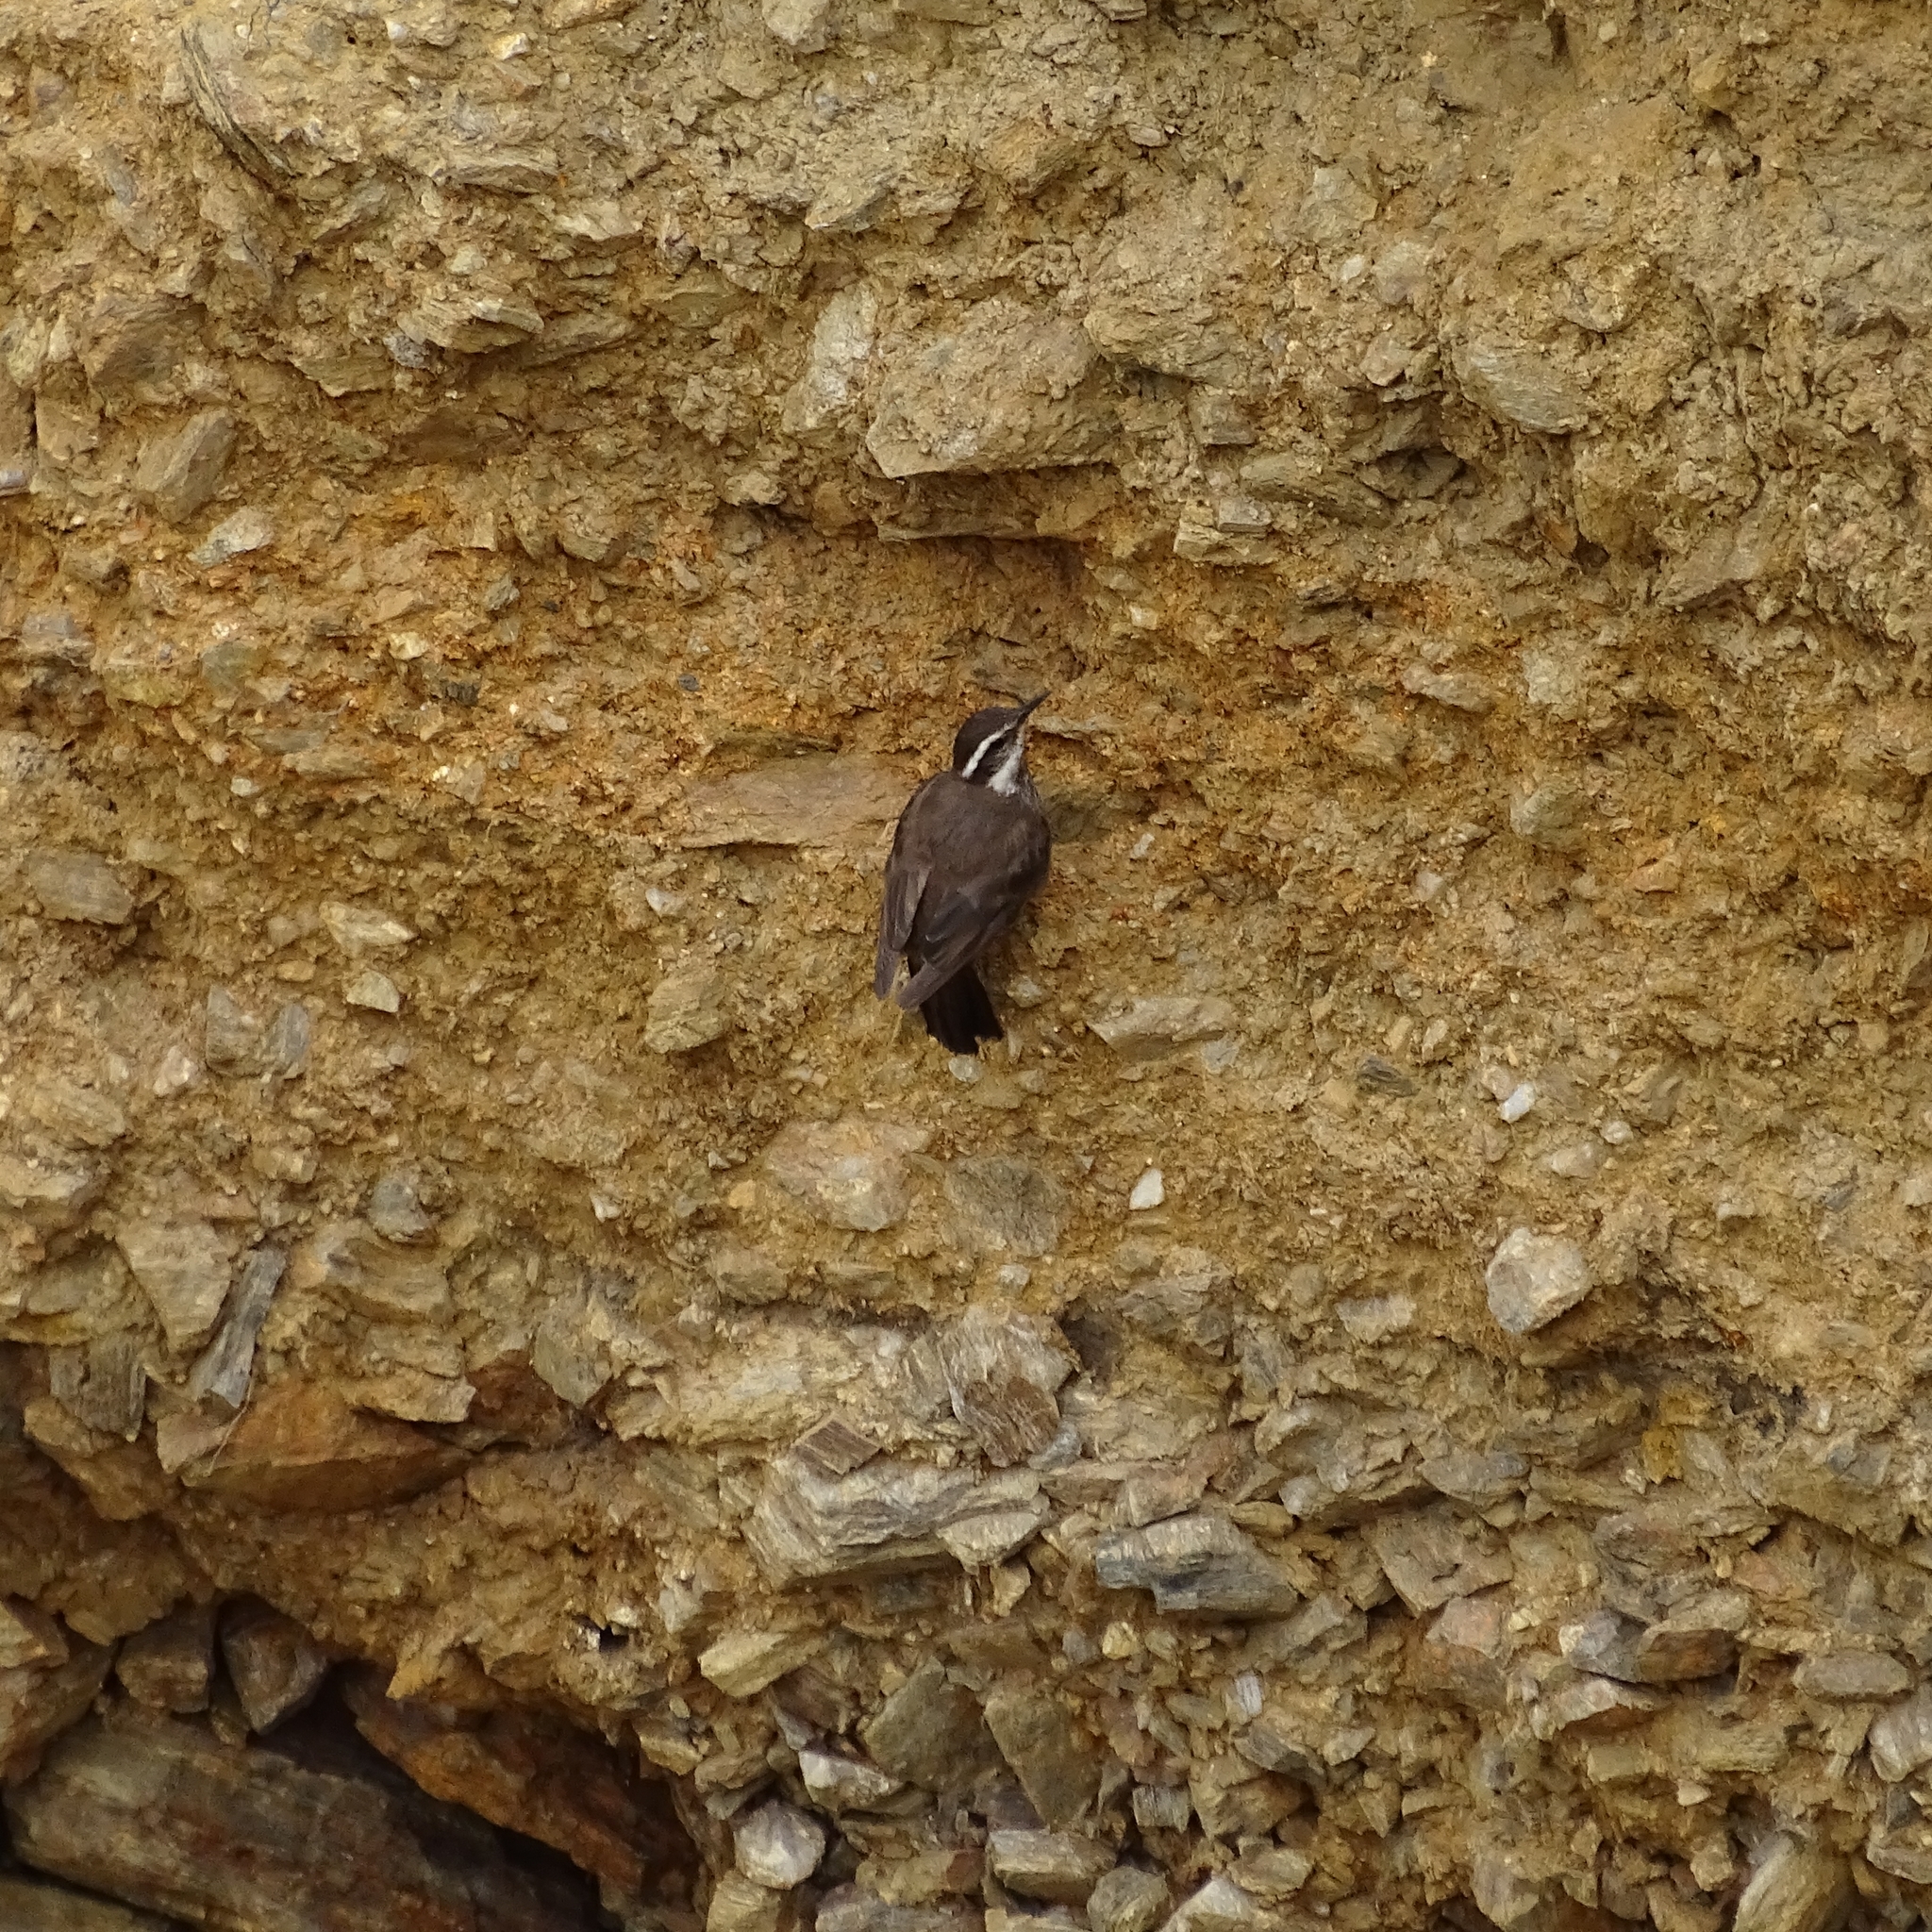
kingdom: Animalia
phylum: Chordata
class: Aves
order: Passeriformes
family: Furnariidae
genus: Cinclodes
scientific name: Cinclodes patagonicus
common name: Dark-bellied cinclodes
